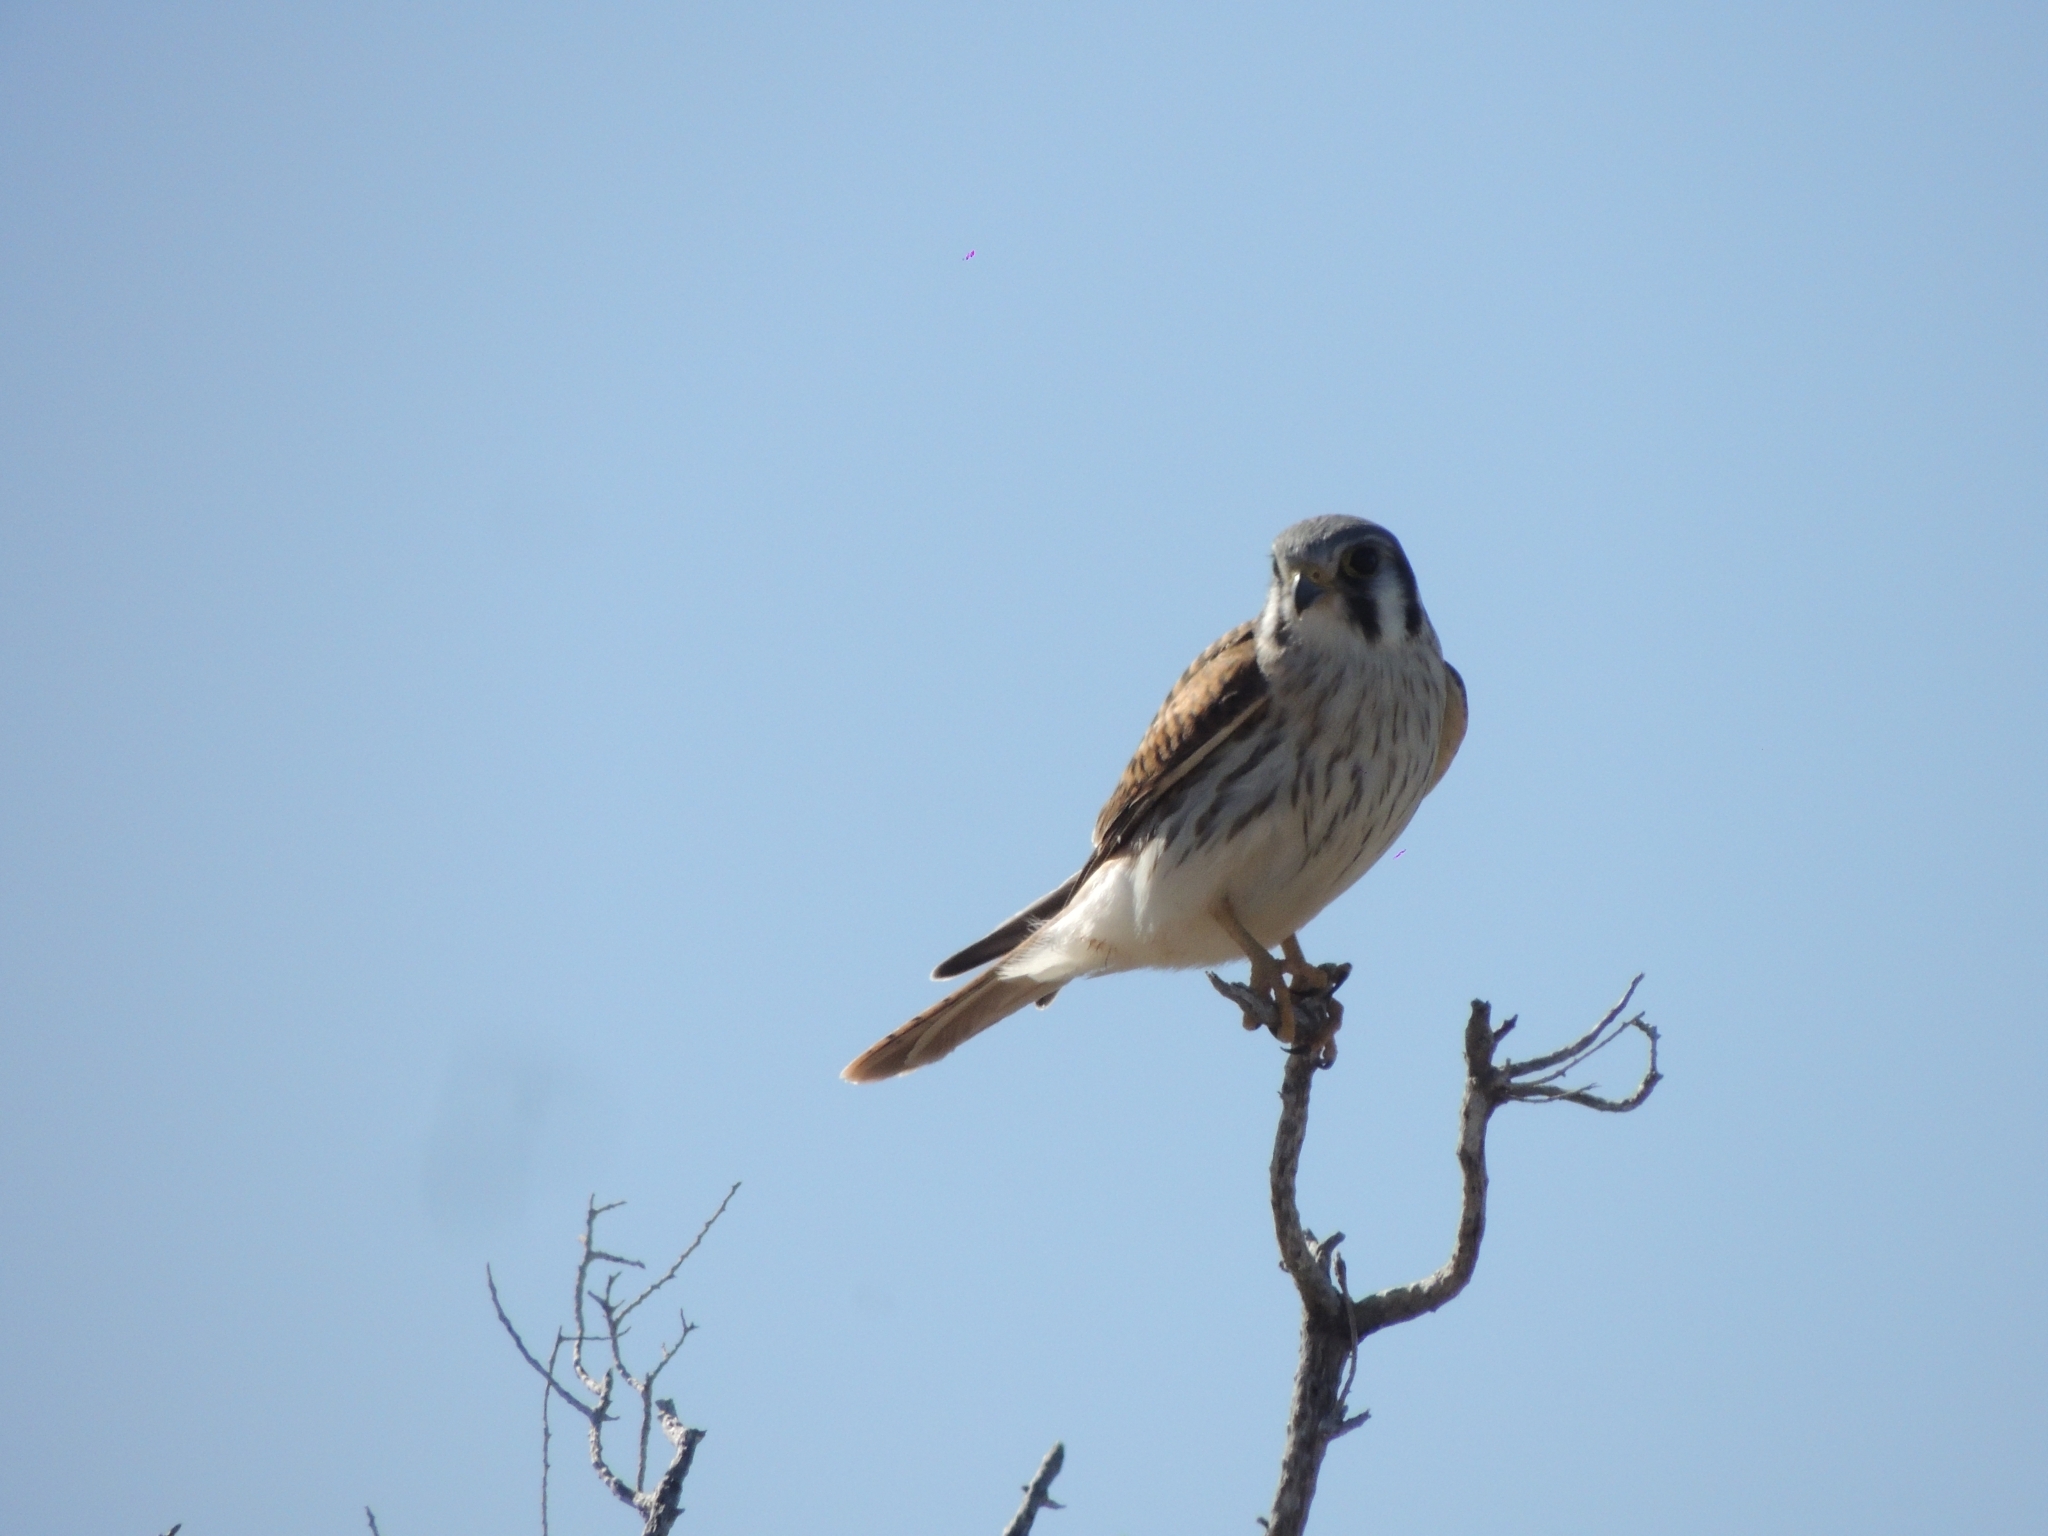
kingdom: Animalia
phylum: Chordata
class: Aves
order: Falconiformes
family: Falconidae
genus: Falco
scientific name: Falco sparverius
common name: American kestrel
